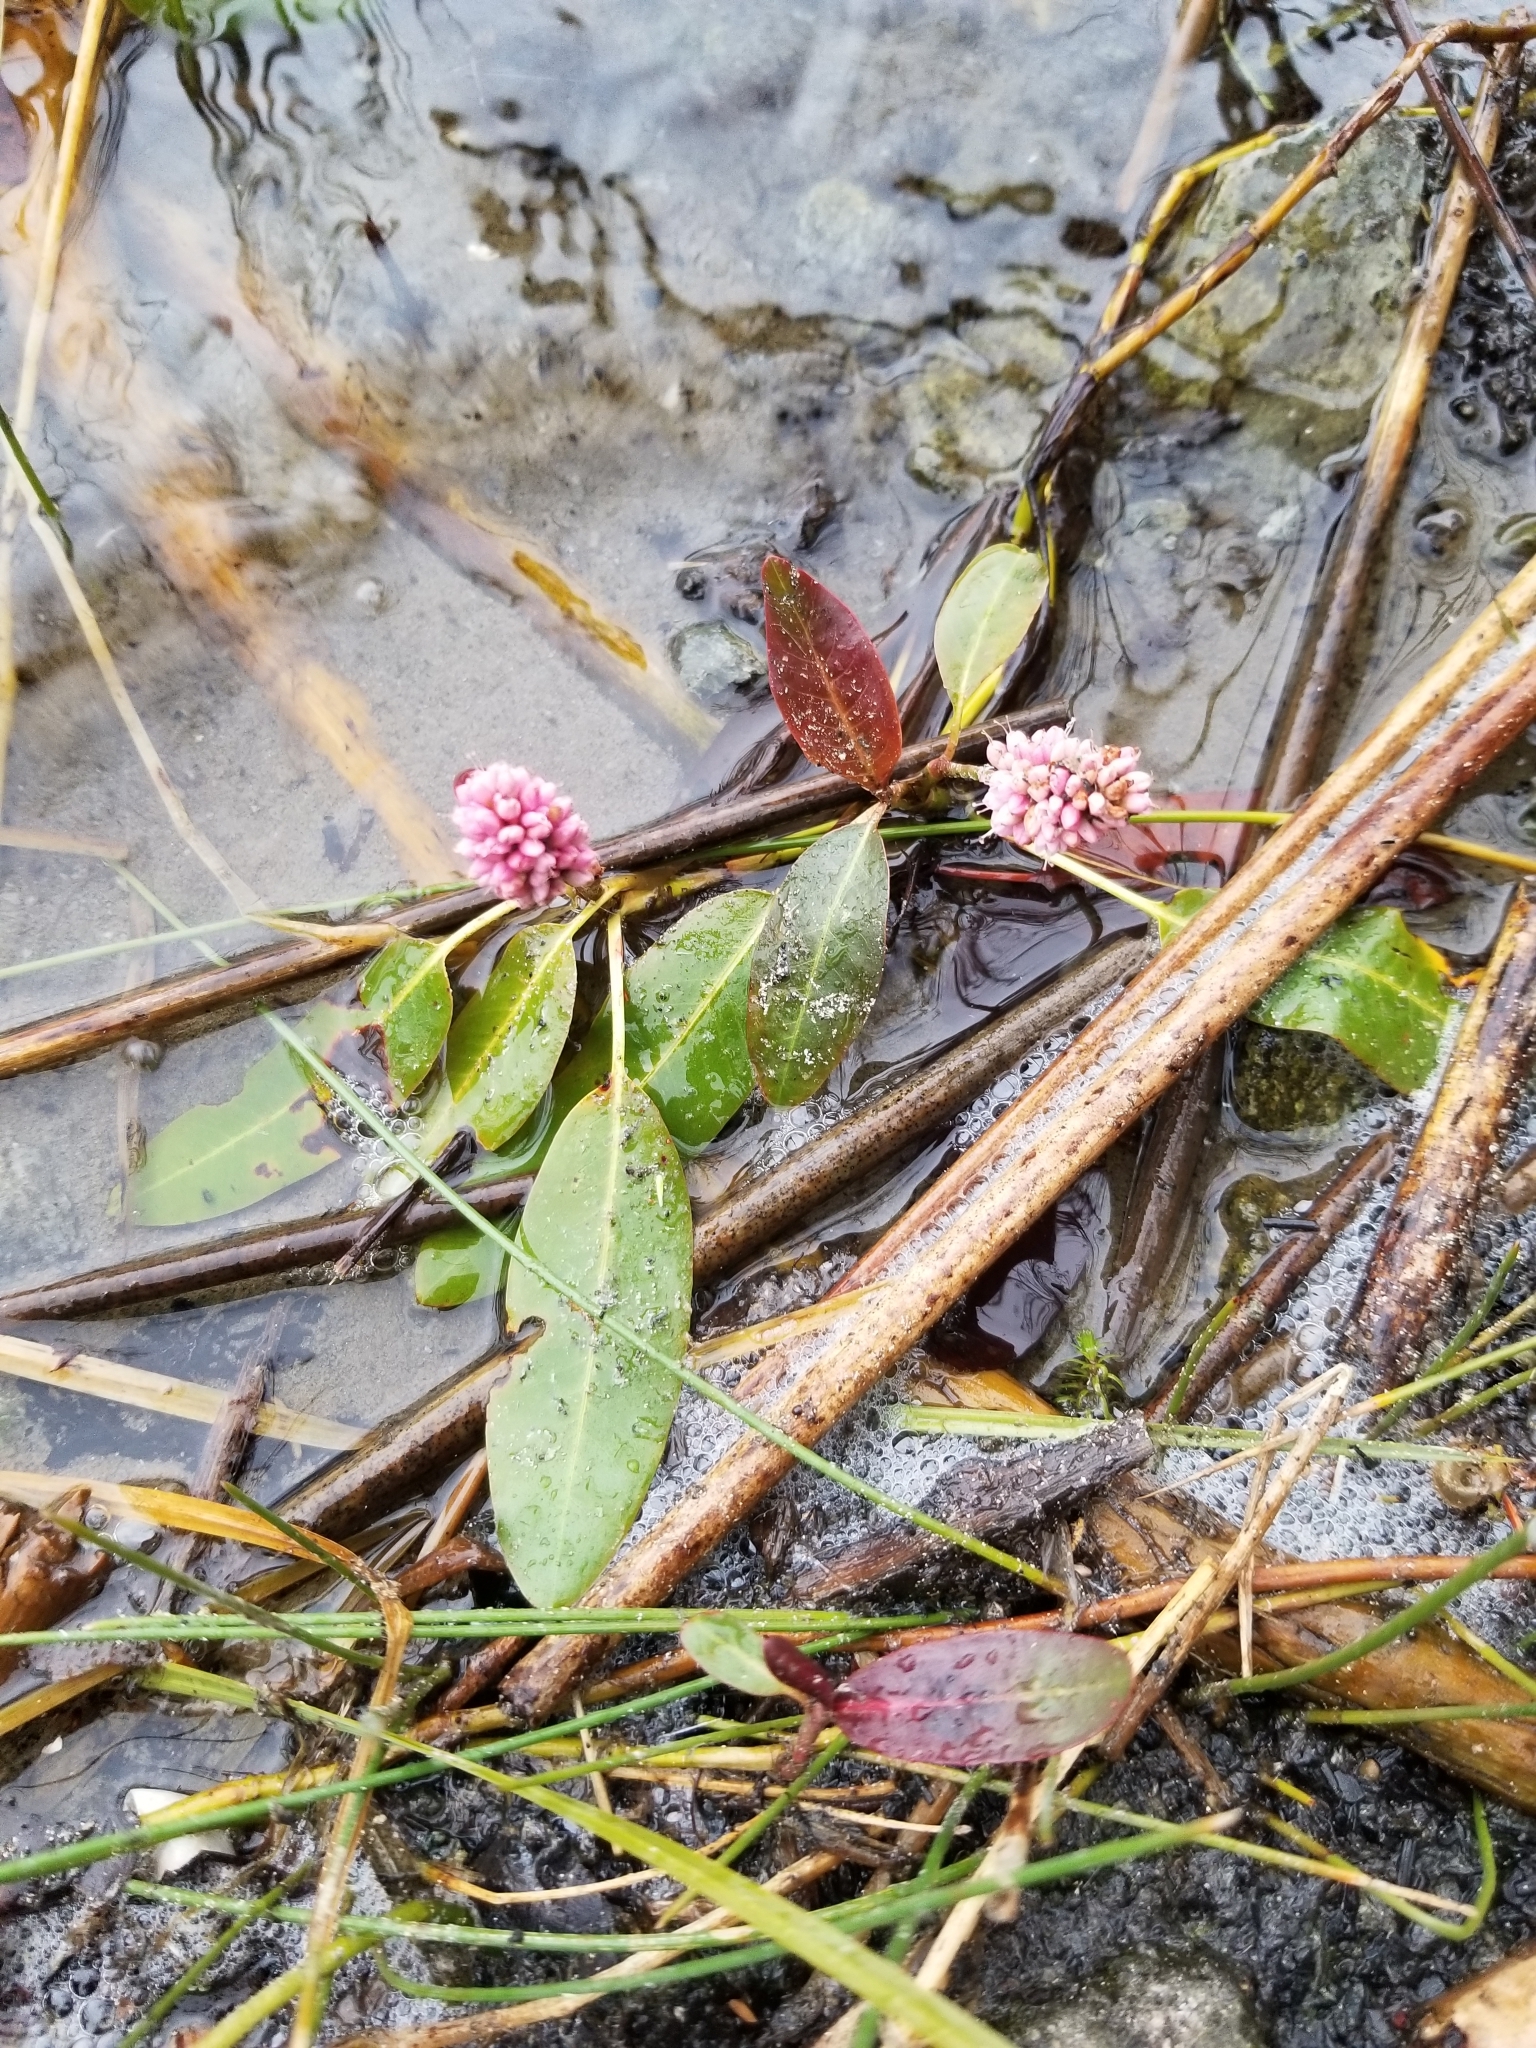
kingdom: Plantae
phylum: Tracheophyta
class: Magnoliopsida
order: Caryophyllales
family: Polygonaceae
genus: Persicaria
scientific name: Persicaria amphibia
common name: Amphibious bistort
